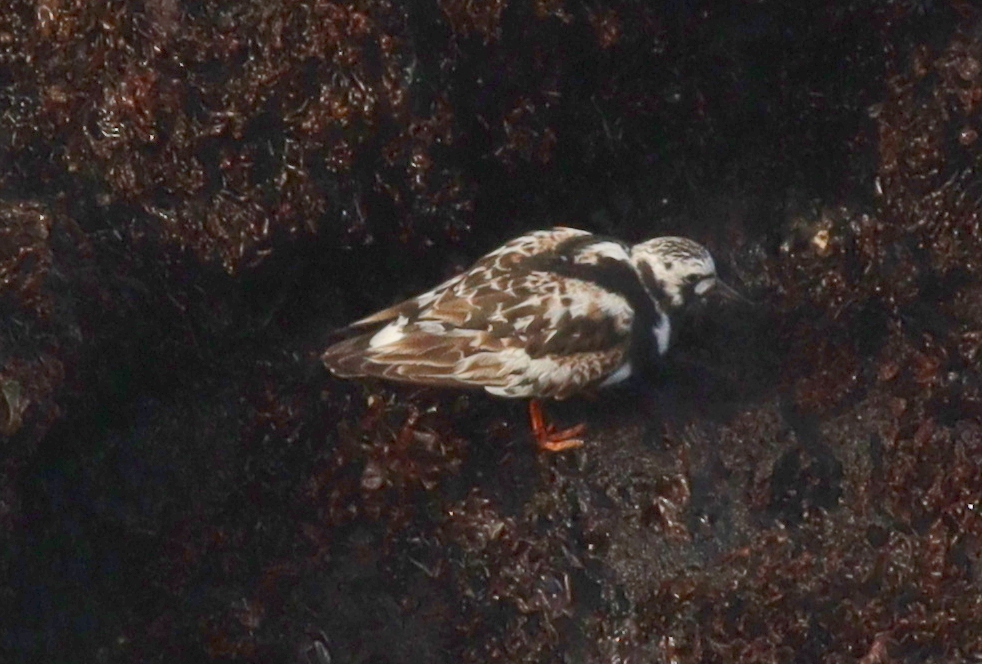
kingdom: Animalia
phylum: Chordata
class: Aves
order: Charadriiformes
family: Scolopacidae
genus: Arenaria
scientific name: Arenaria interpres
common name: Ruddy turnstone
